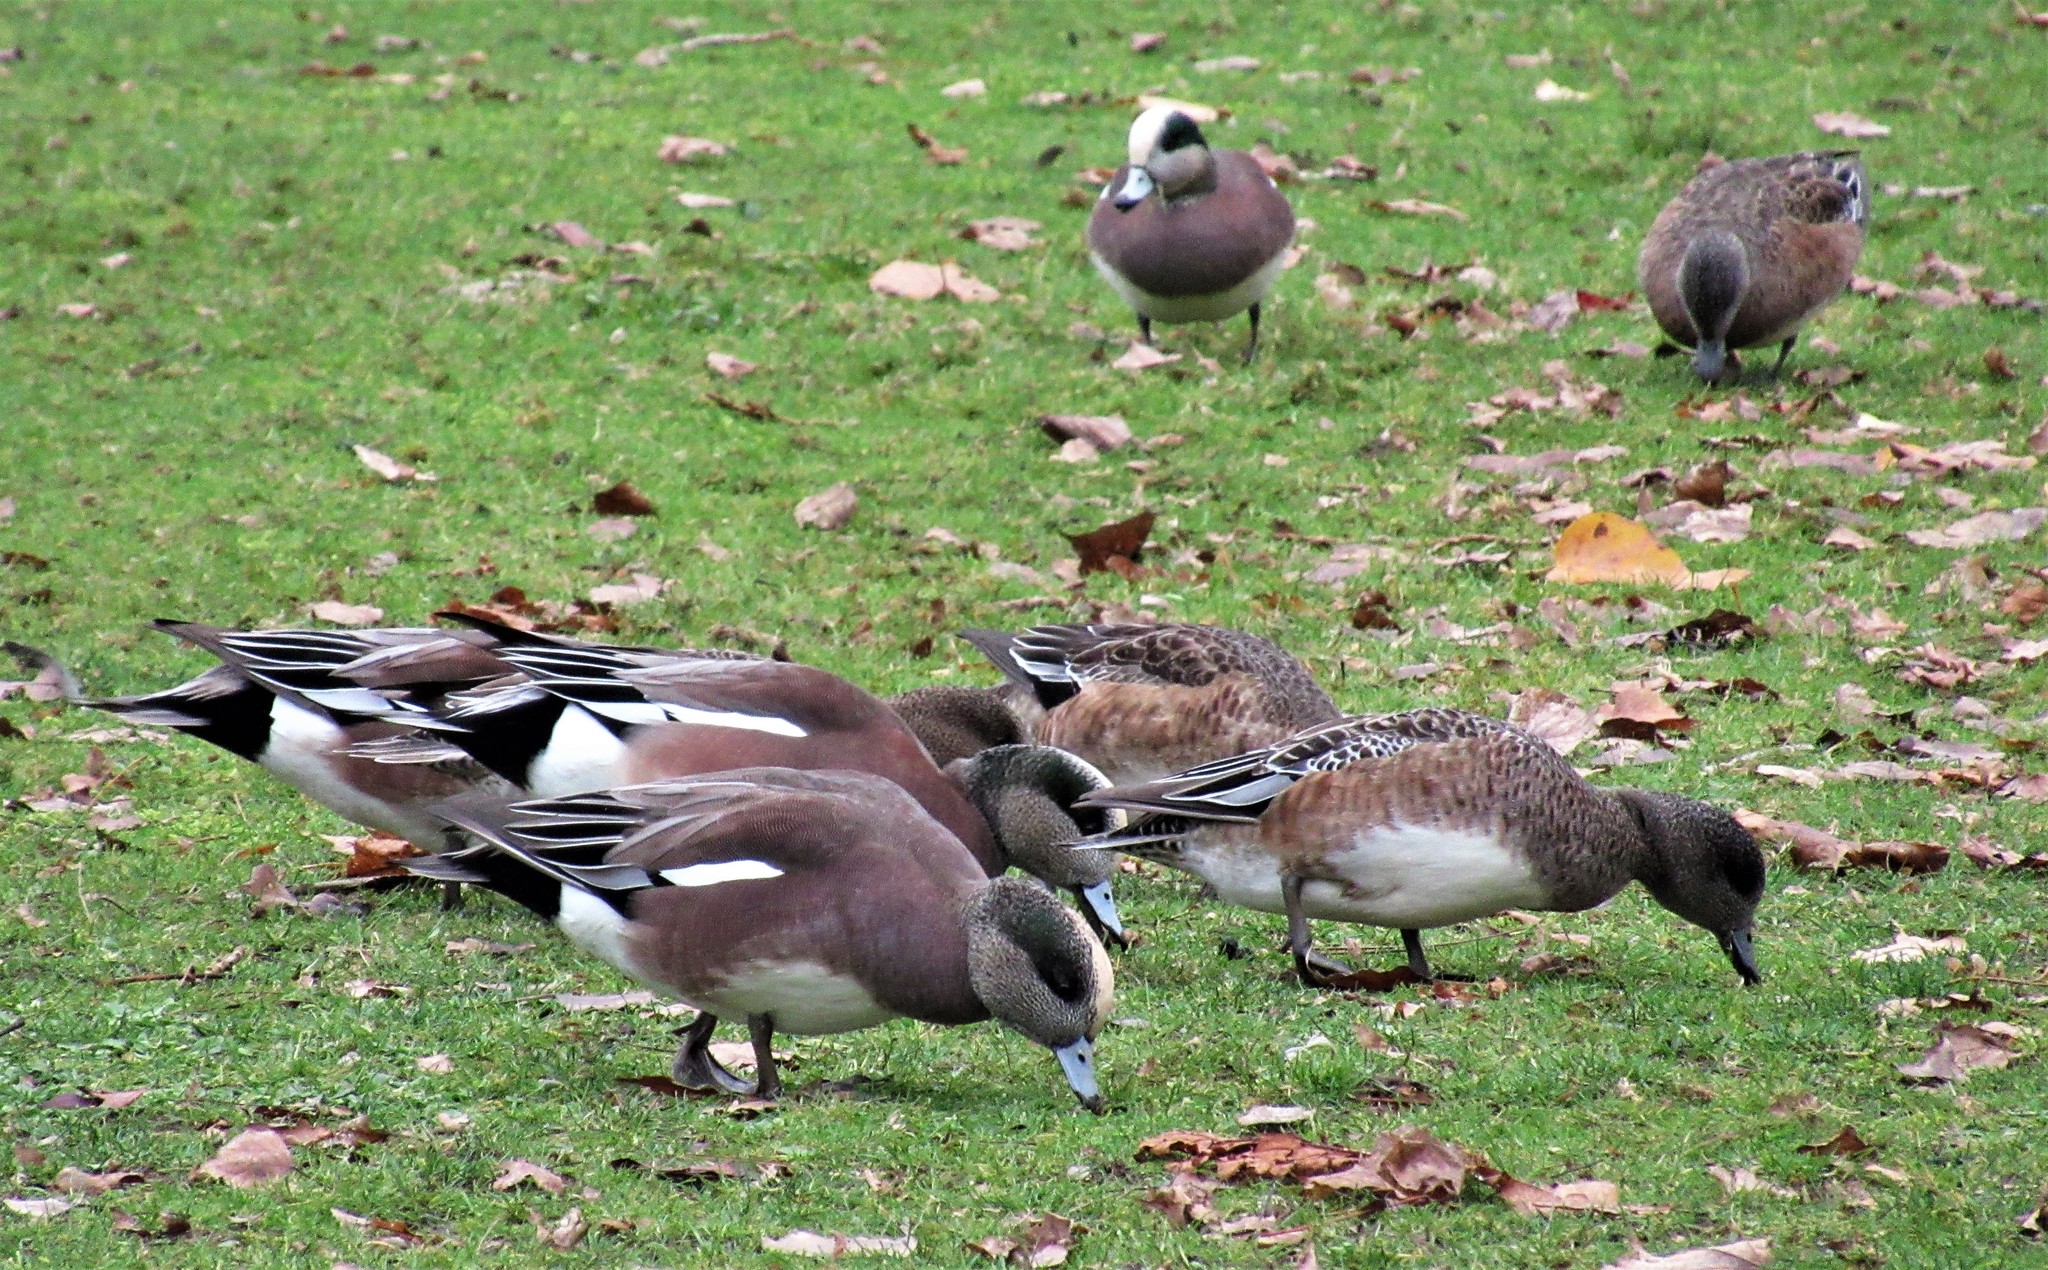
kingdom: Animalia
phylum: Chordata
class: Aves
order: Anseriformes
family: Anatidae
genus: Mareca
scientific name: Mareca americana
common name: American wigeon
